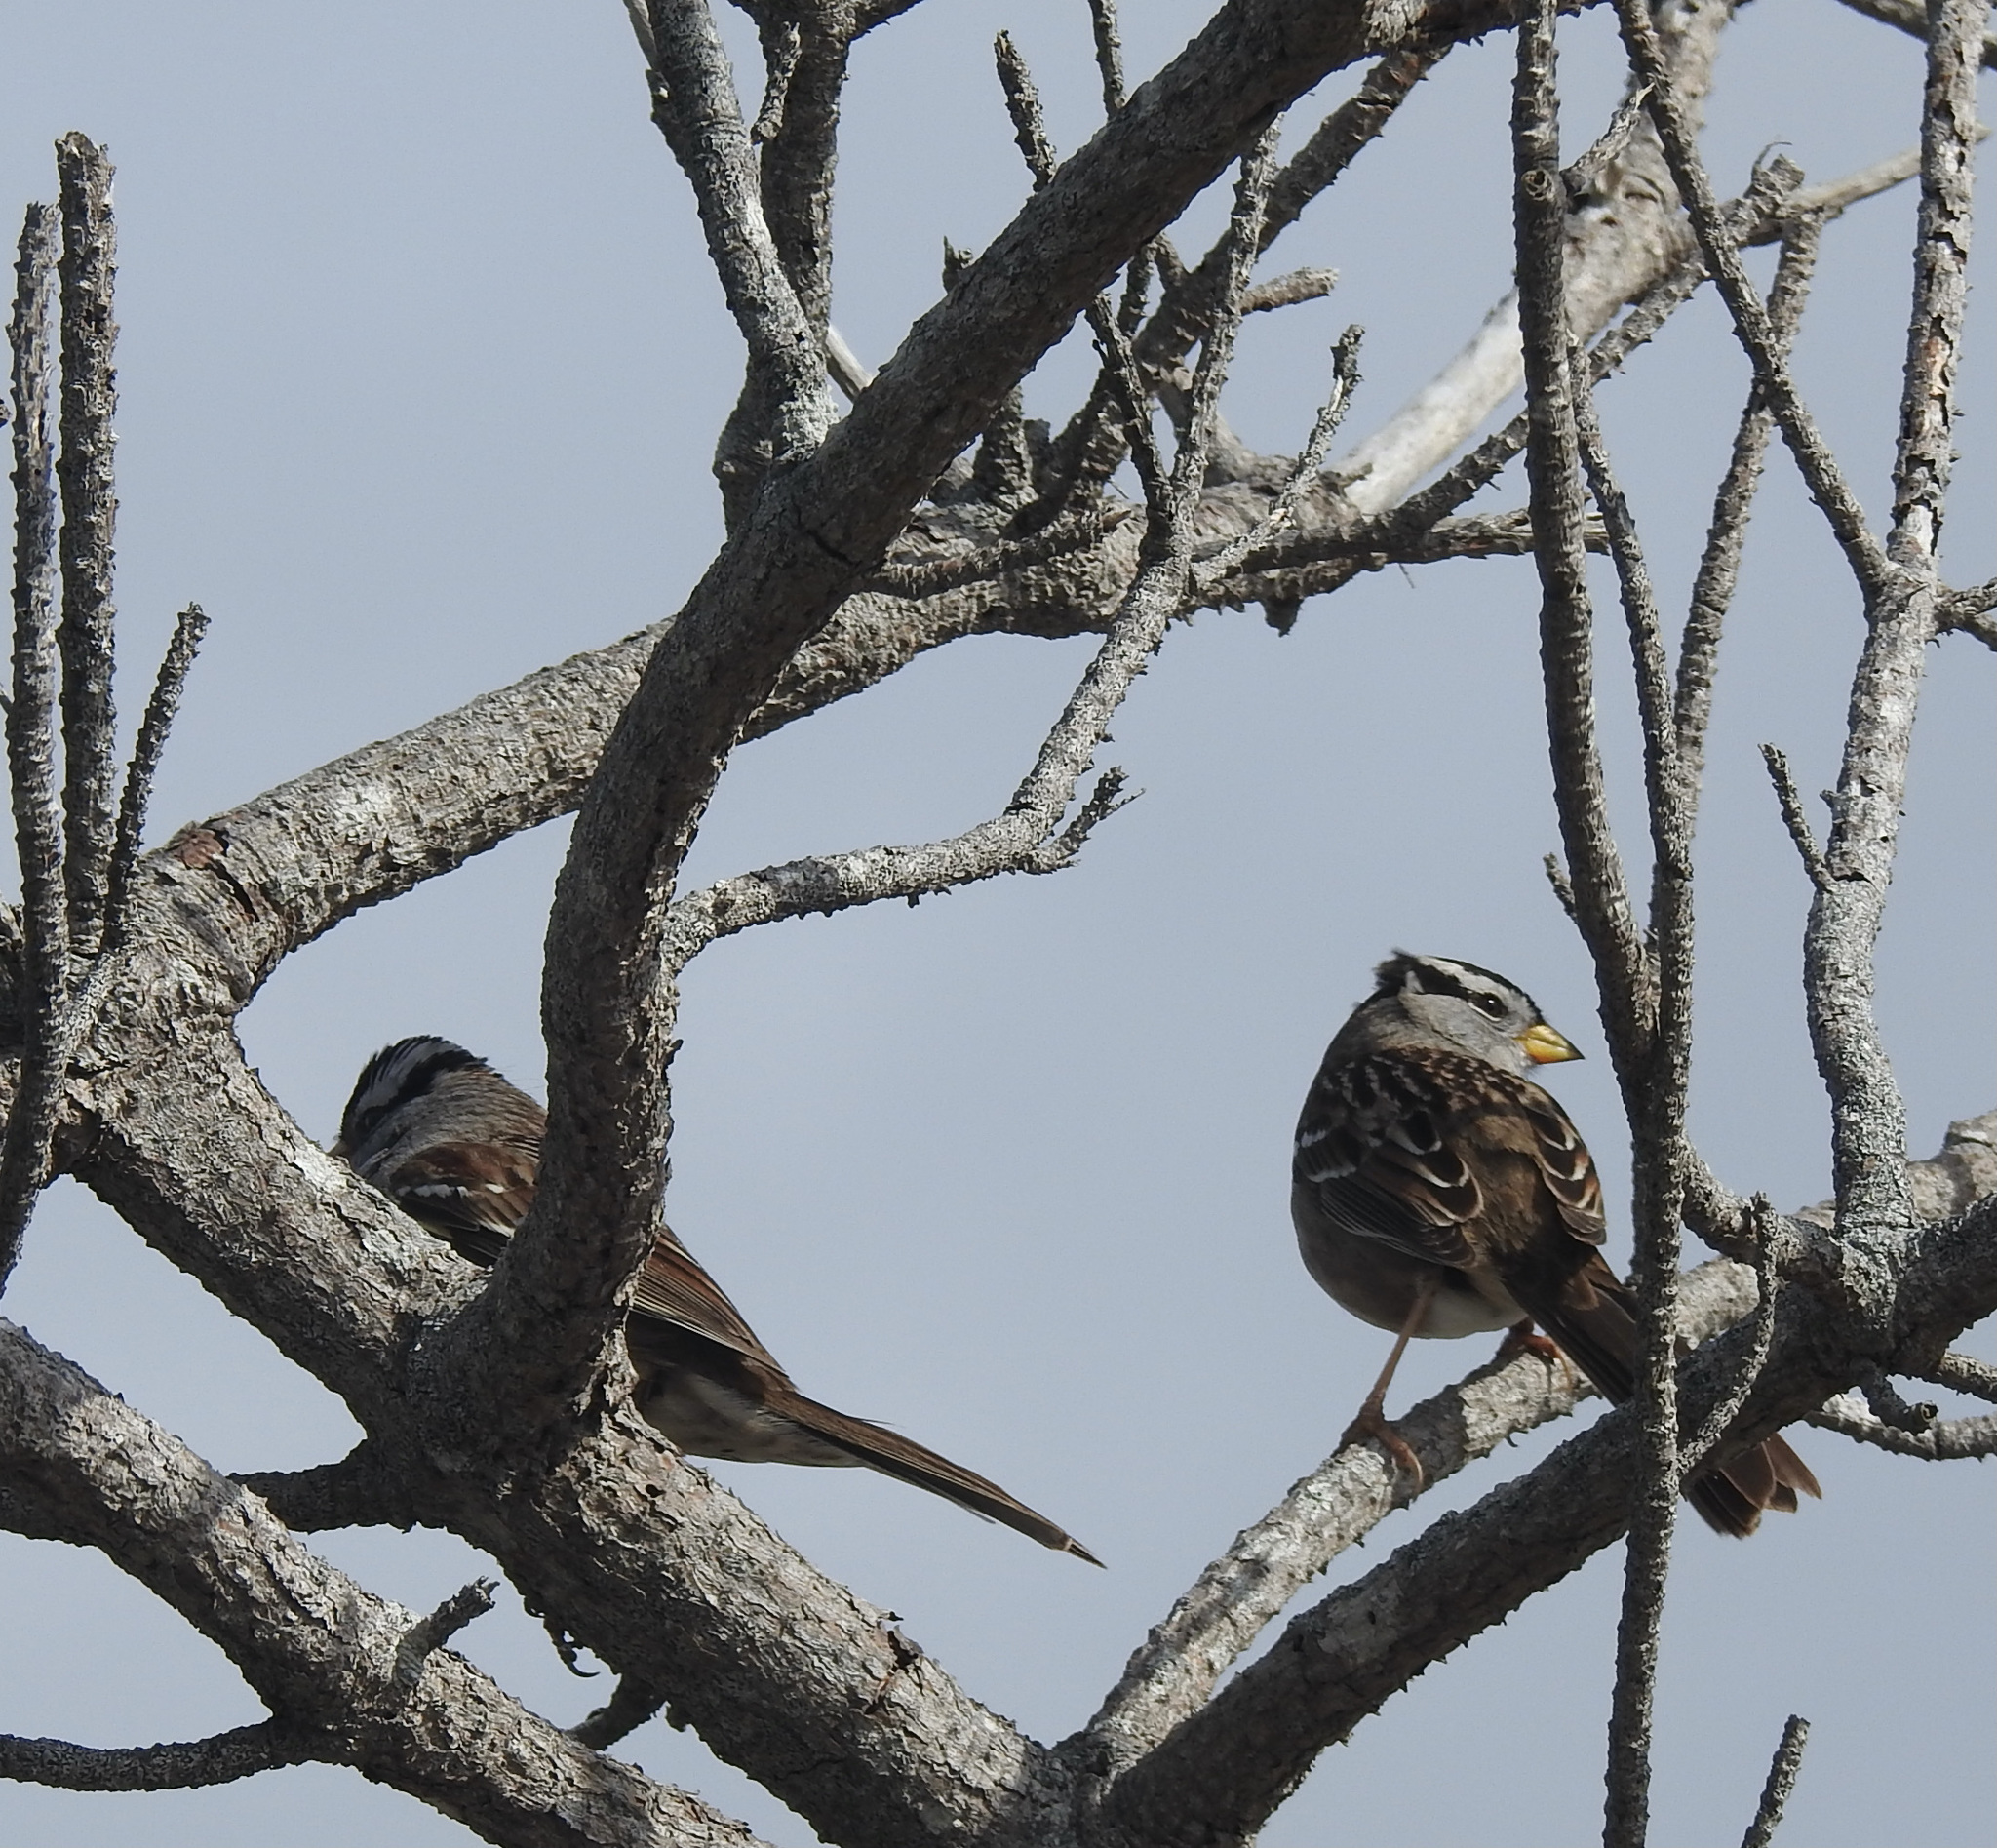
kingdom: Animalia
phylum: Chordata
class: Aves
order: Passeriformes
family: Passerellidae
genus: Zonotrichia
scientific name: Zonotrichia leucophrys
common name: White-crowned sparrow
